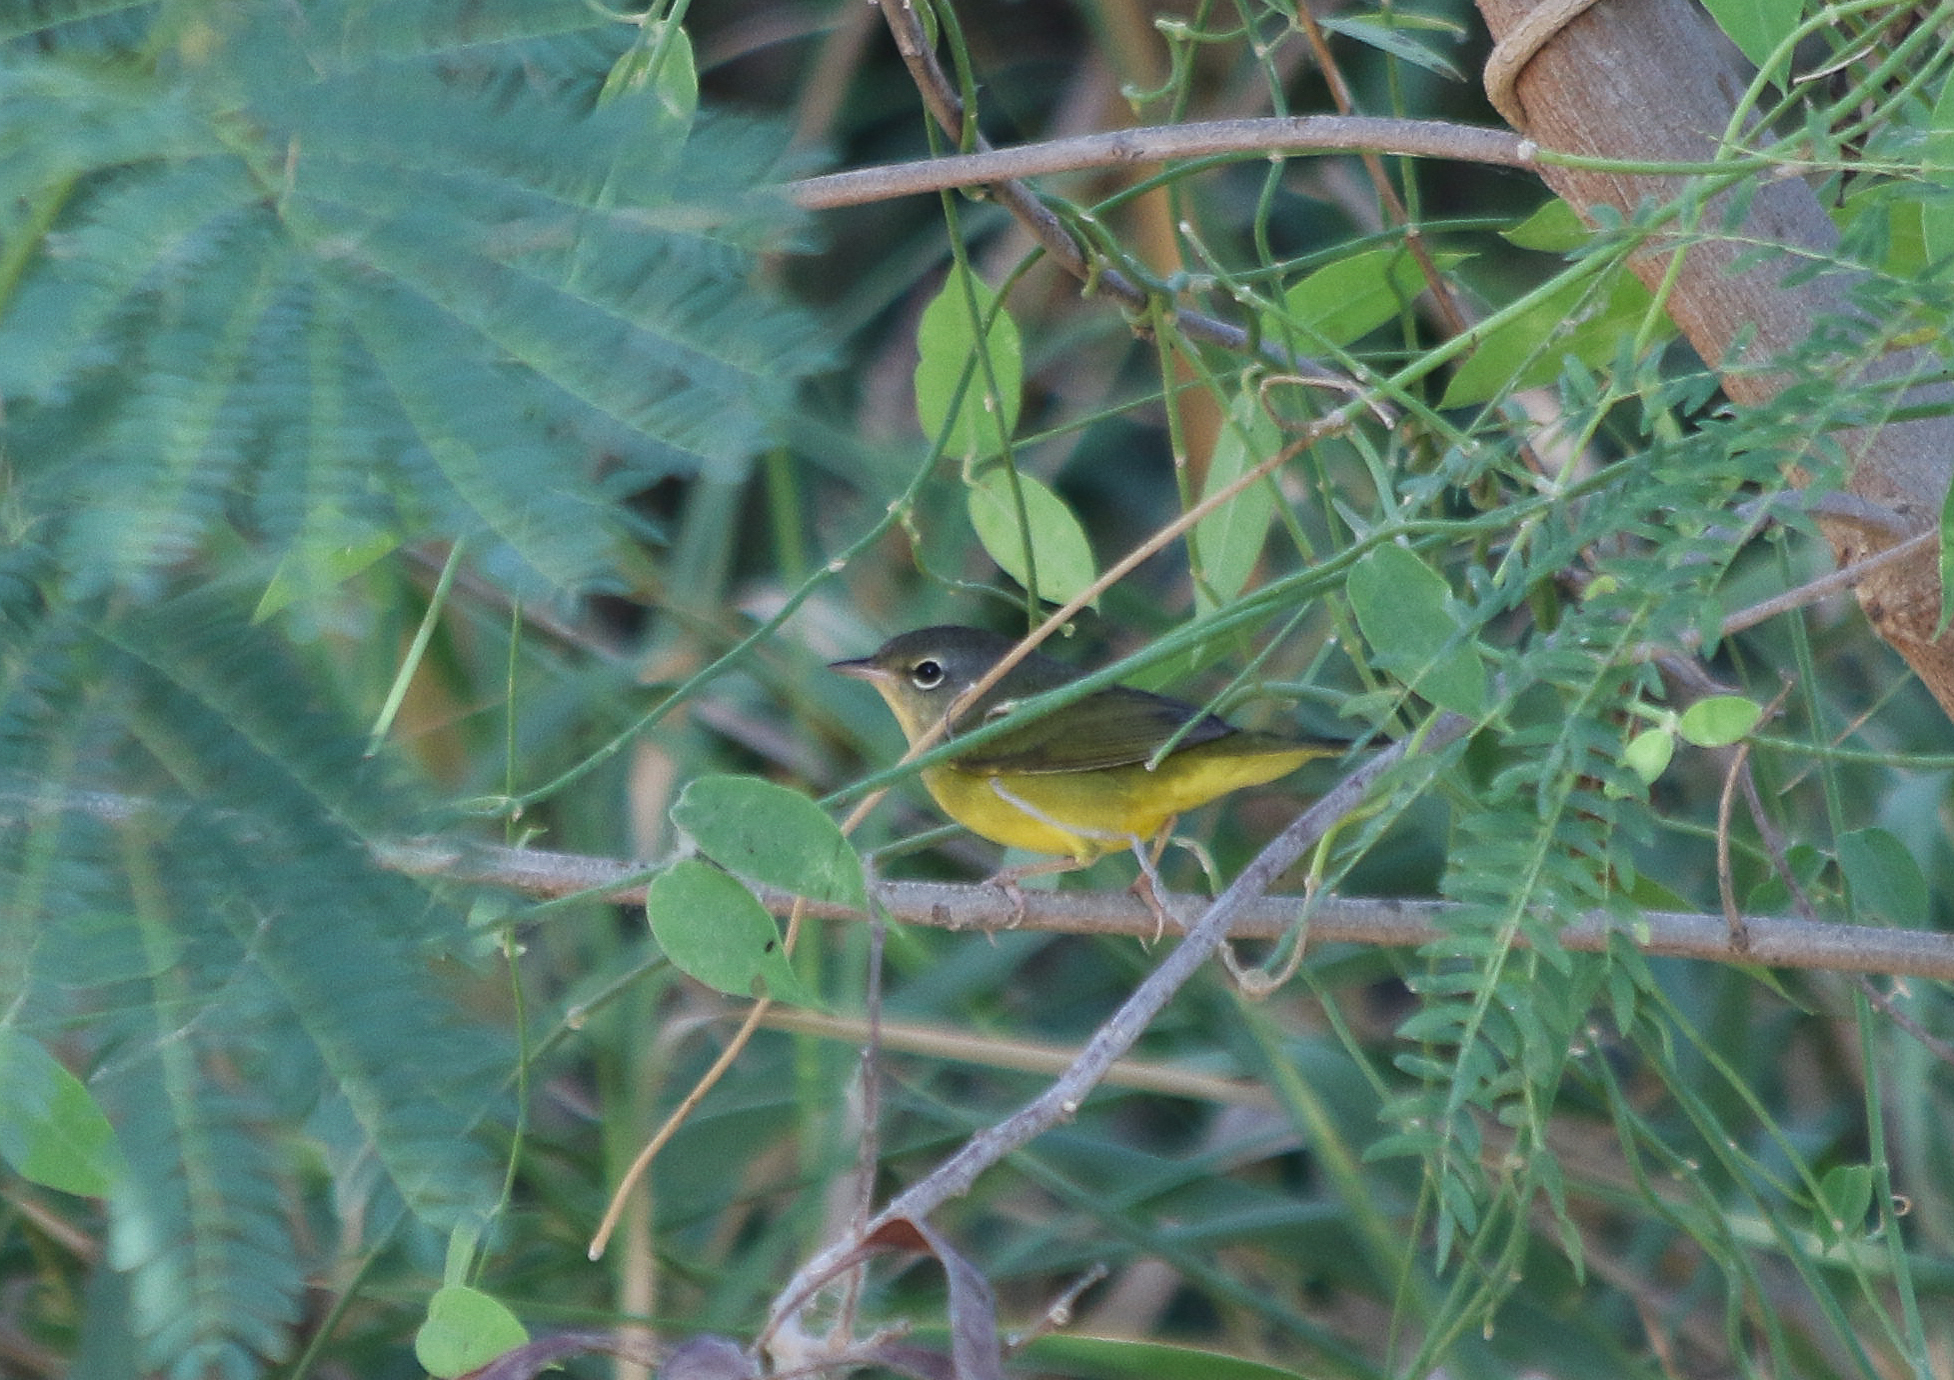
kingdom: Animalia
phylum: Chordata
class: Aves
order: Passeriformes
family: Parulidae
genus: Geothlypis
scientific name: Geothlypis philadelphia
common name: Mourning warbler
